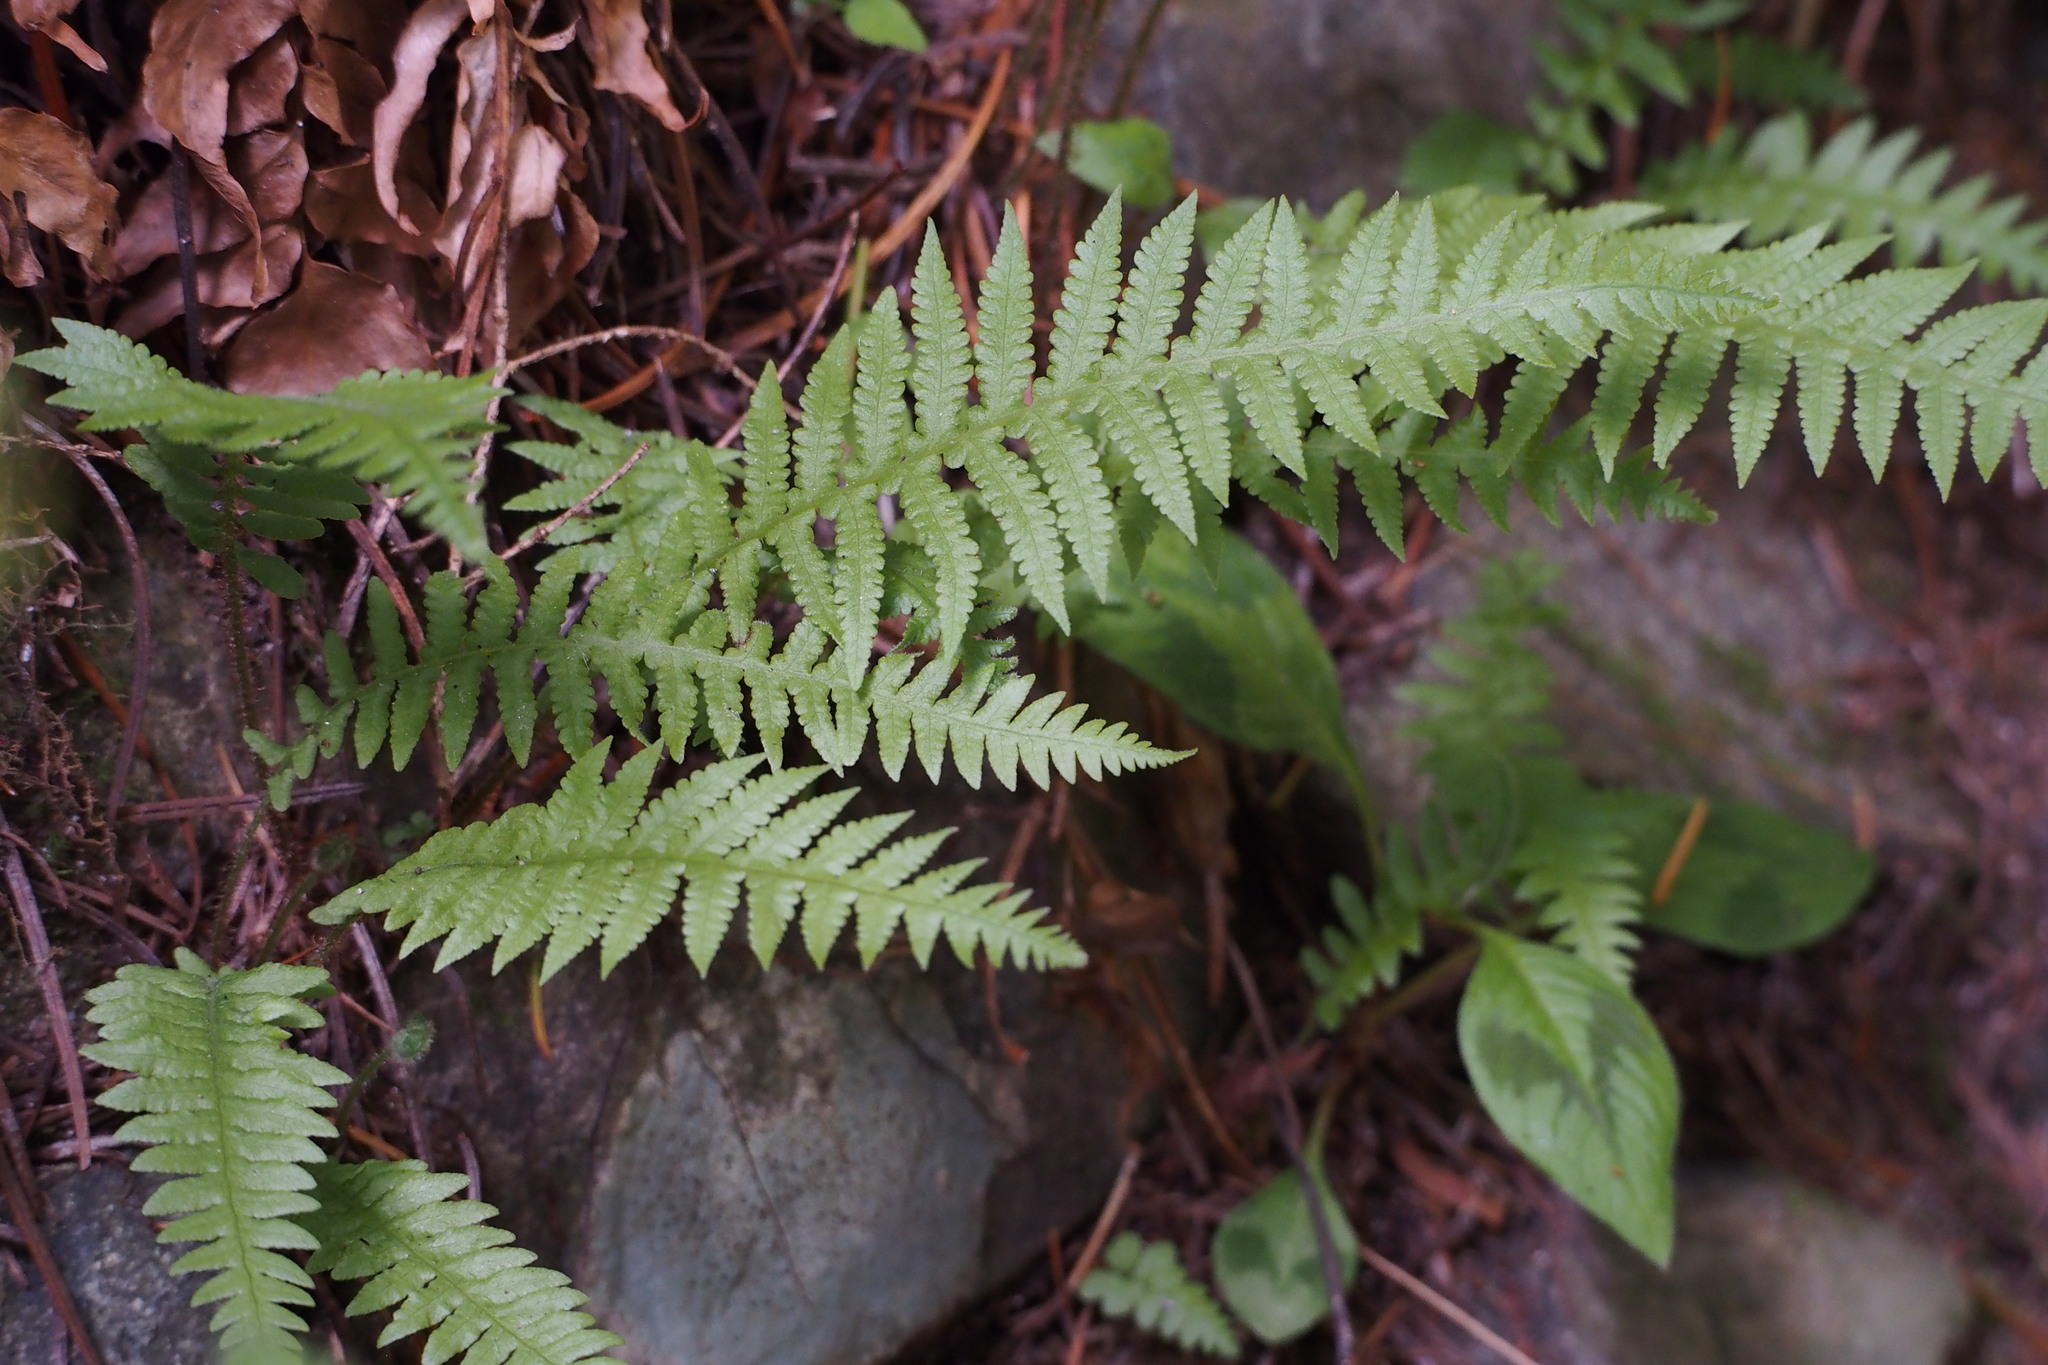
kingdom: Plantae
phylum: Tracheophyta
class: Polypodiopsida
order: Polypodiales
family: Thelypteridaceae
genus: Phegopteris
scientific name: Phegopteris decursive-pinnata
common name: Japanese beech fern
